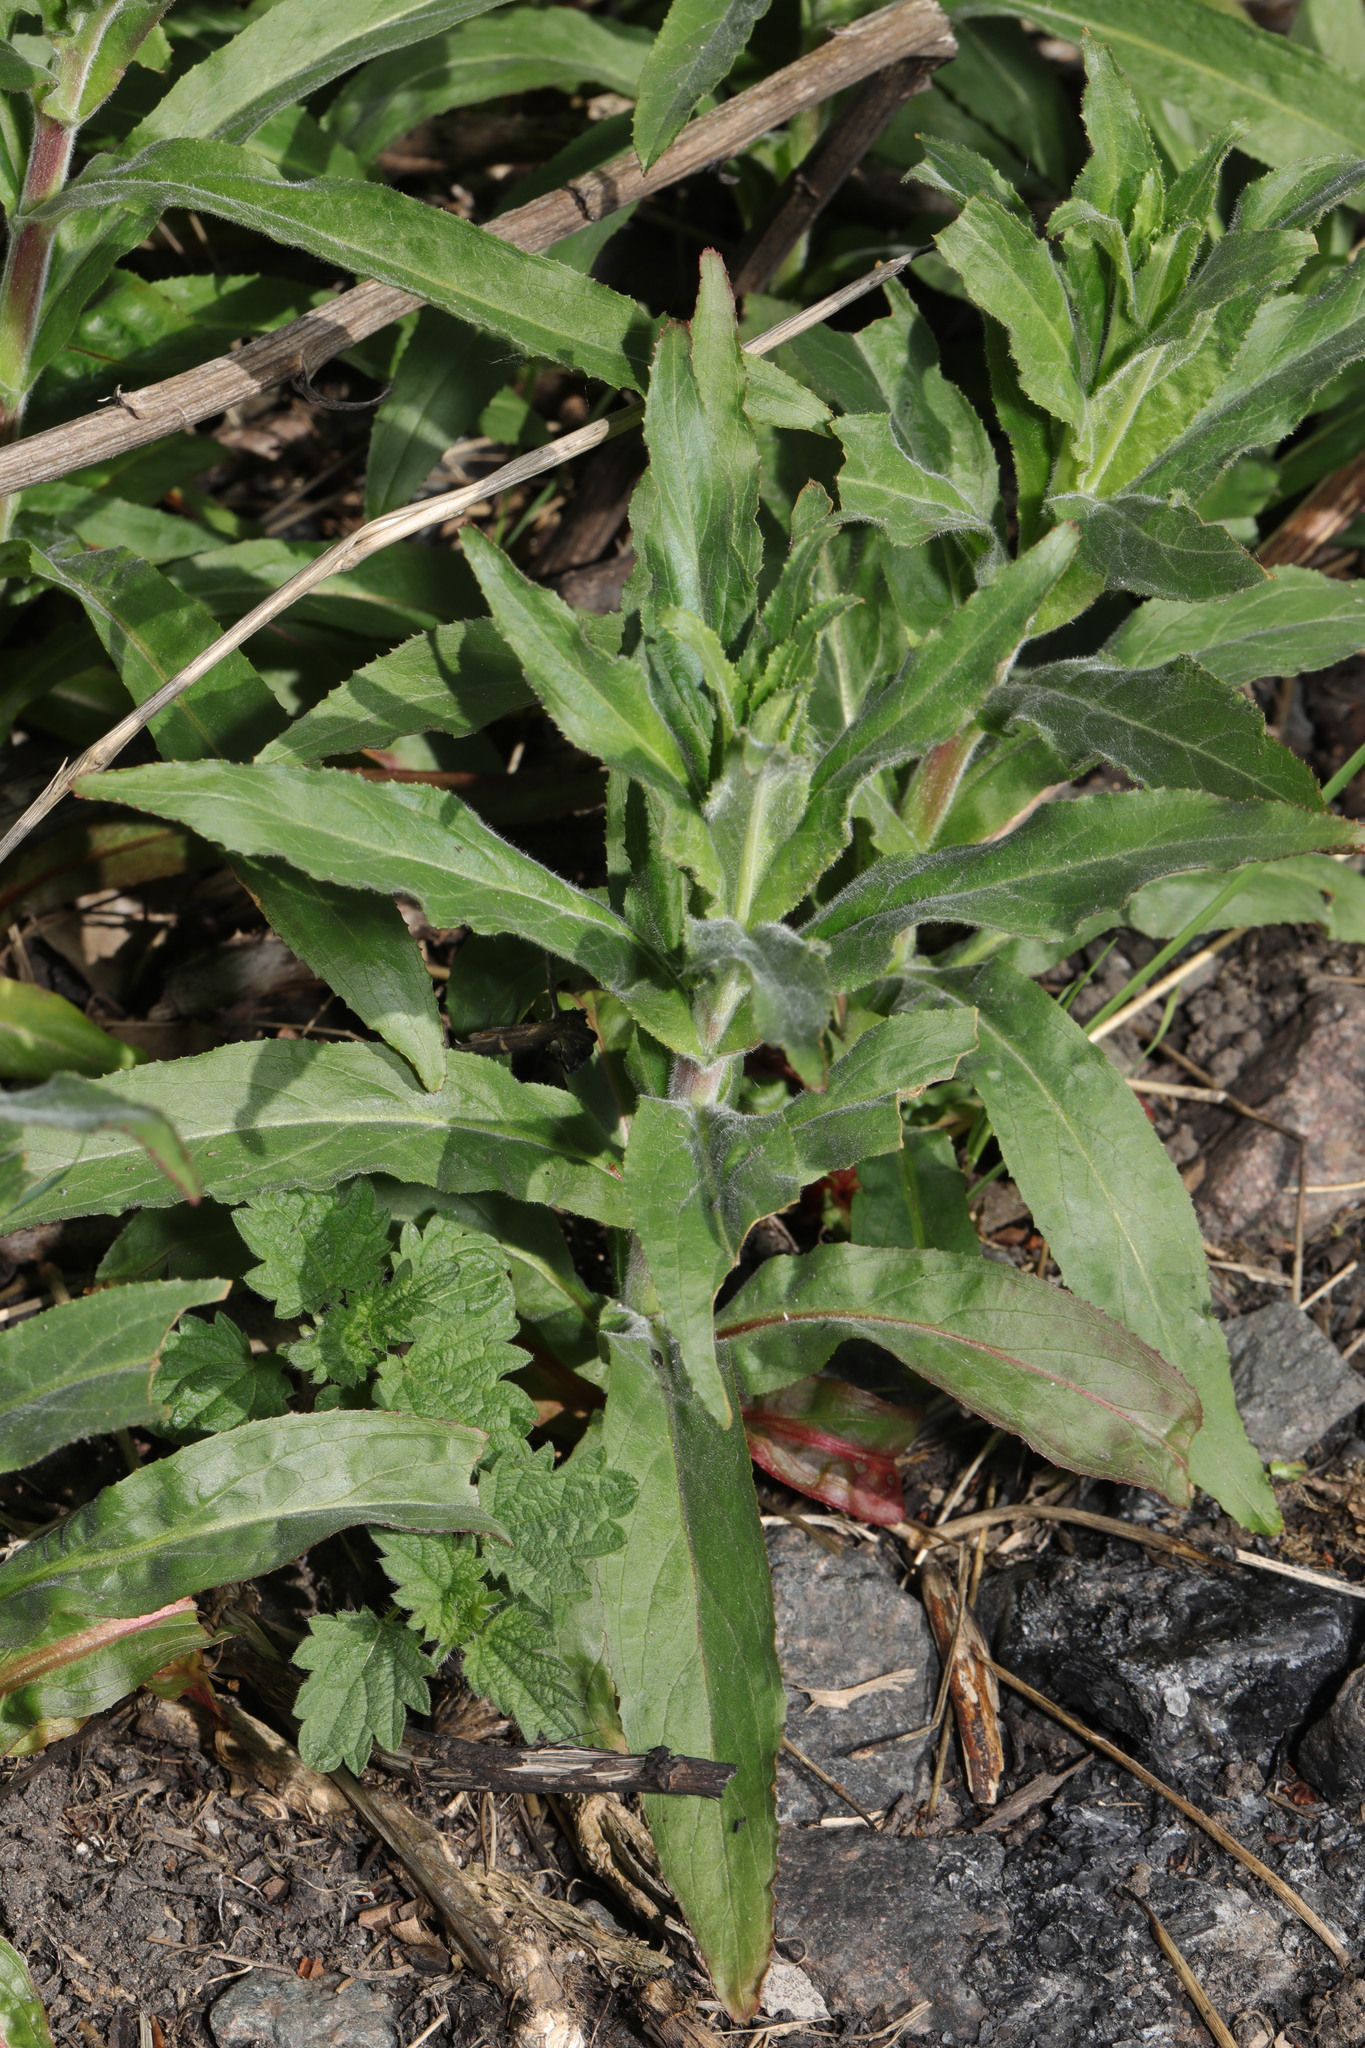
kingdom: Plantae
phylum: Tracheophyta
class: Magnoliopsida
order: Myrtales
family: Onagraceae
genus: Epilobium
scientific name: Epilobium hirsutum
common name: Great willowherb
